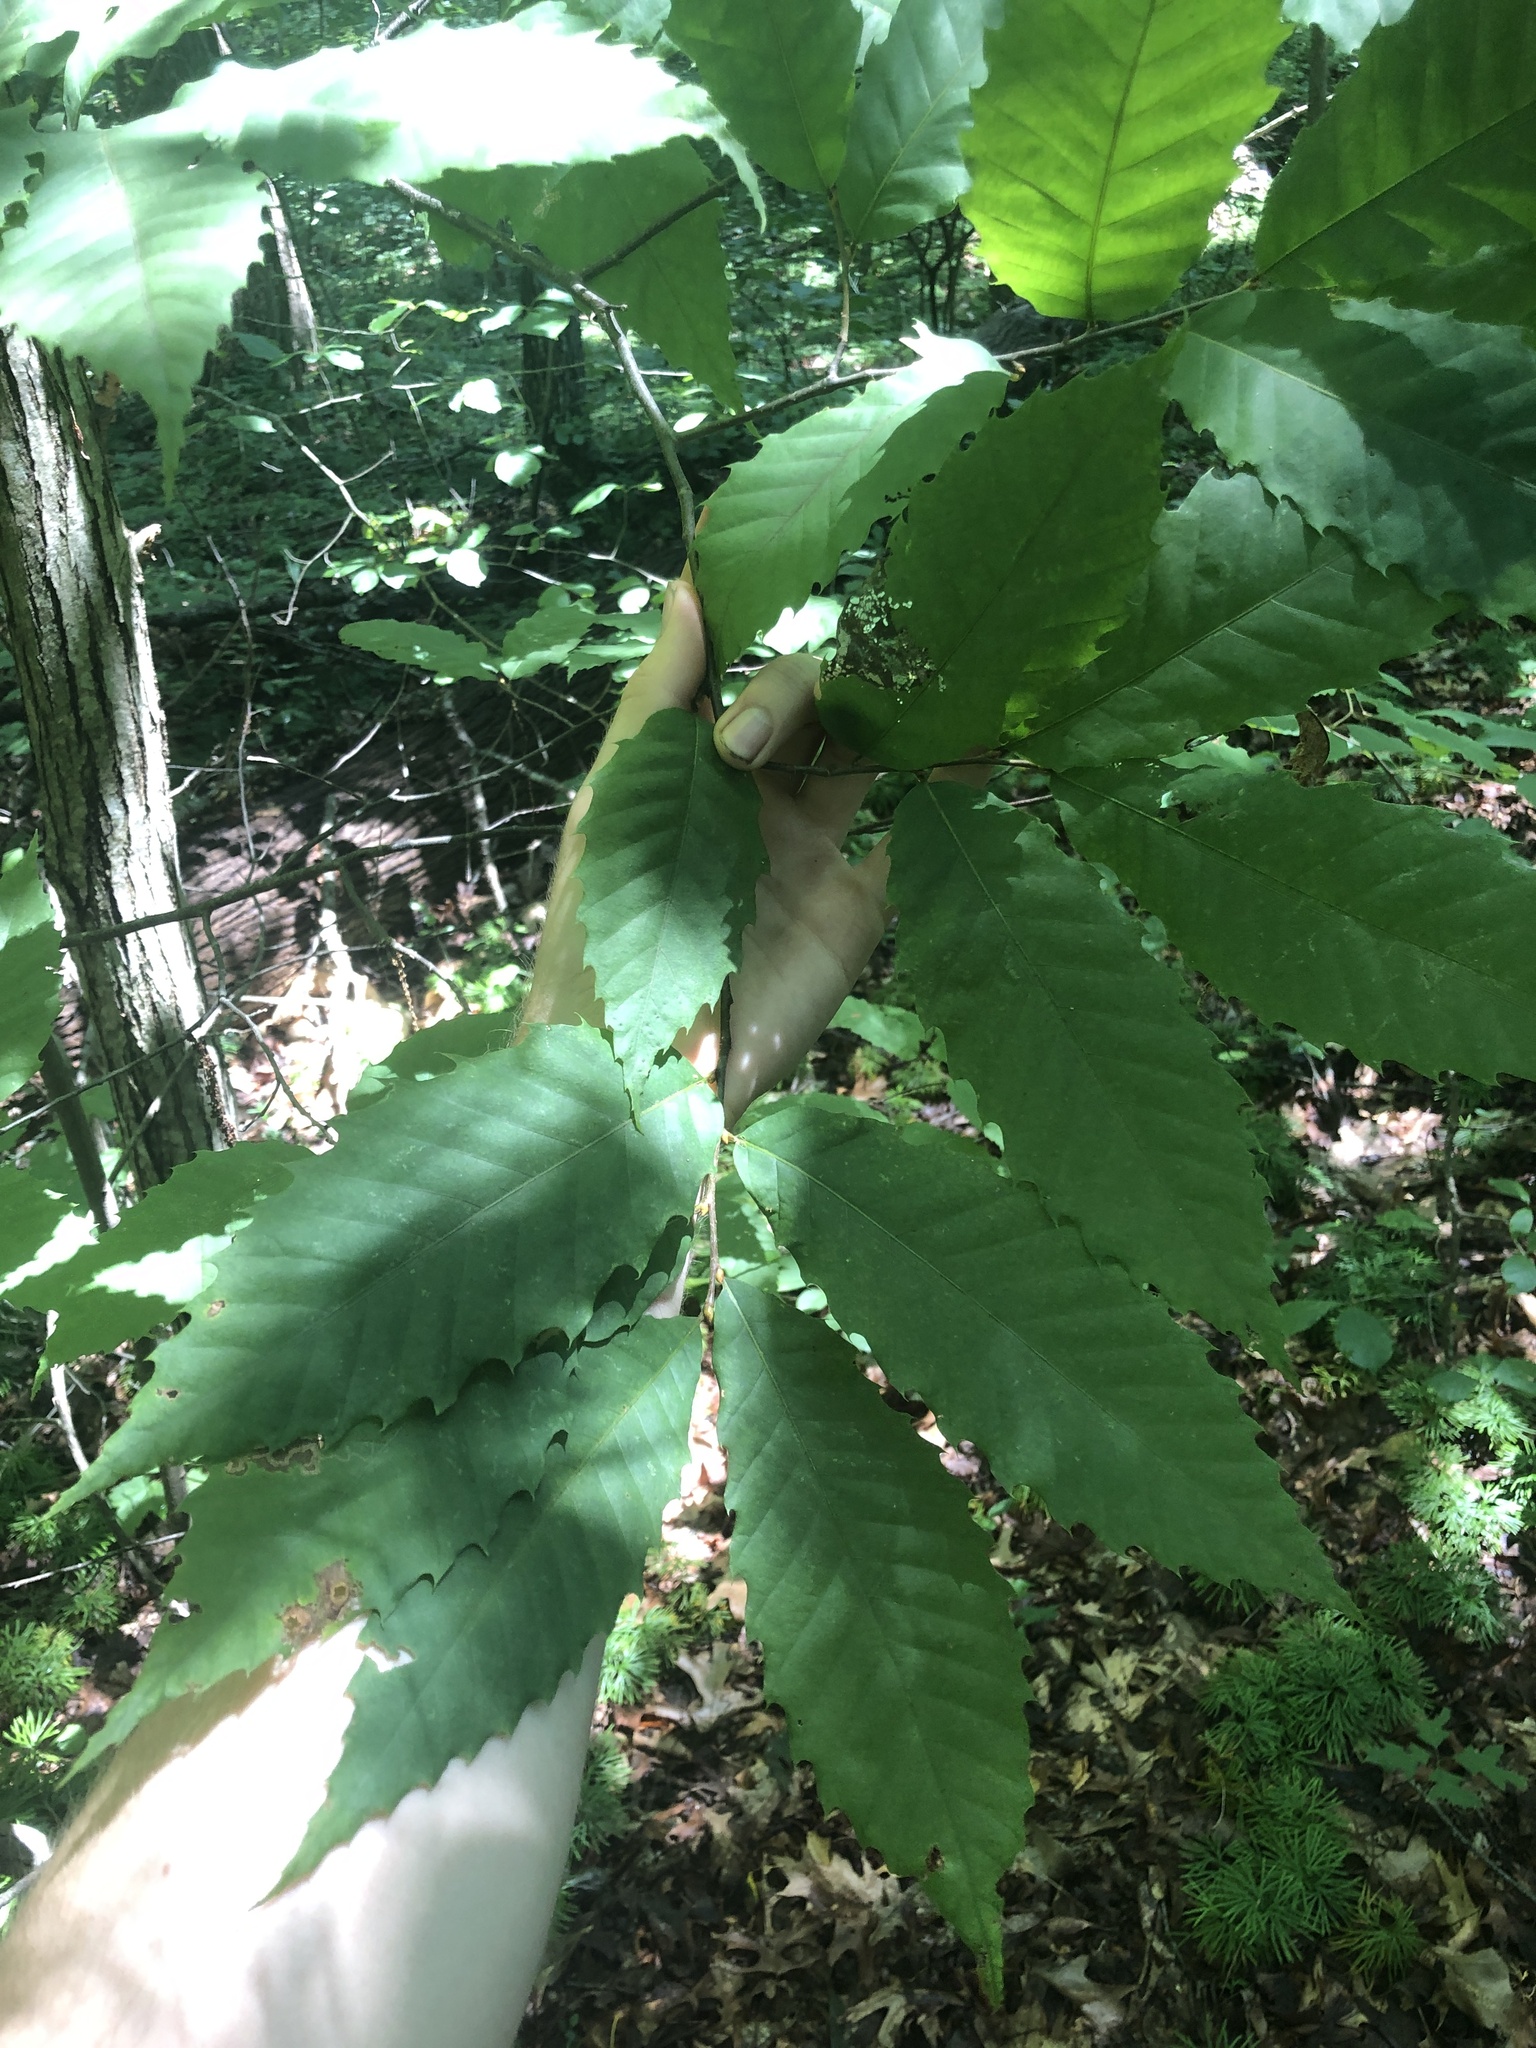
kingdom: Plantae
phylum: Tracheophyta
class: Magnoliopsida
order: Fagales
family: Fagaceae
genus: Castanea
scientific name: Castanea dentata
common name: American chestnut
